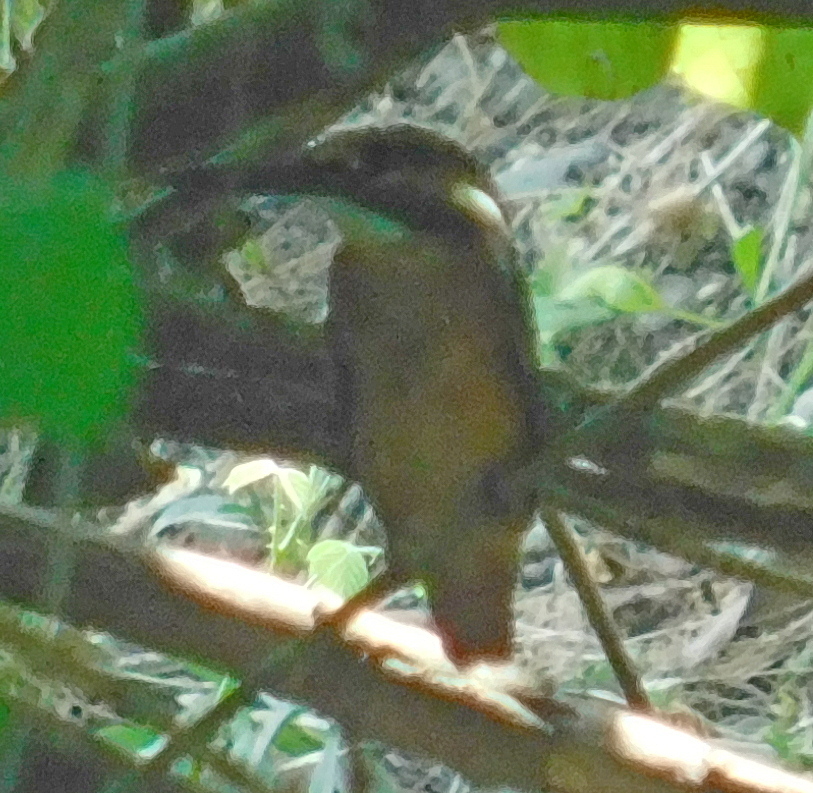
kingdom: Animalia
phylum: Chordata
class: Aves
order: Coraciiformes
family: Alcedinidae
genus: Alcedo
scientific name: Alcedo atthis
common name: Common kingfisher
